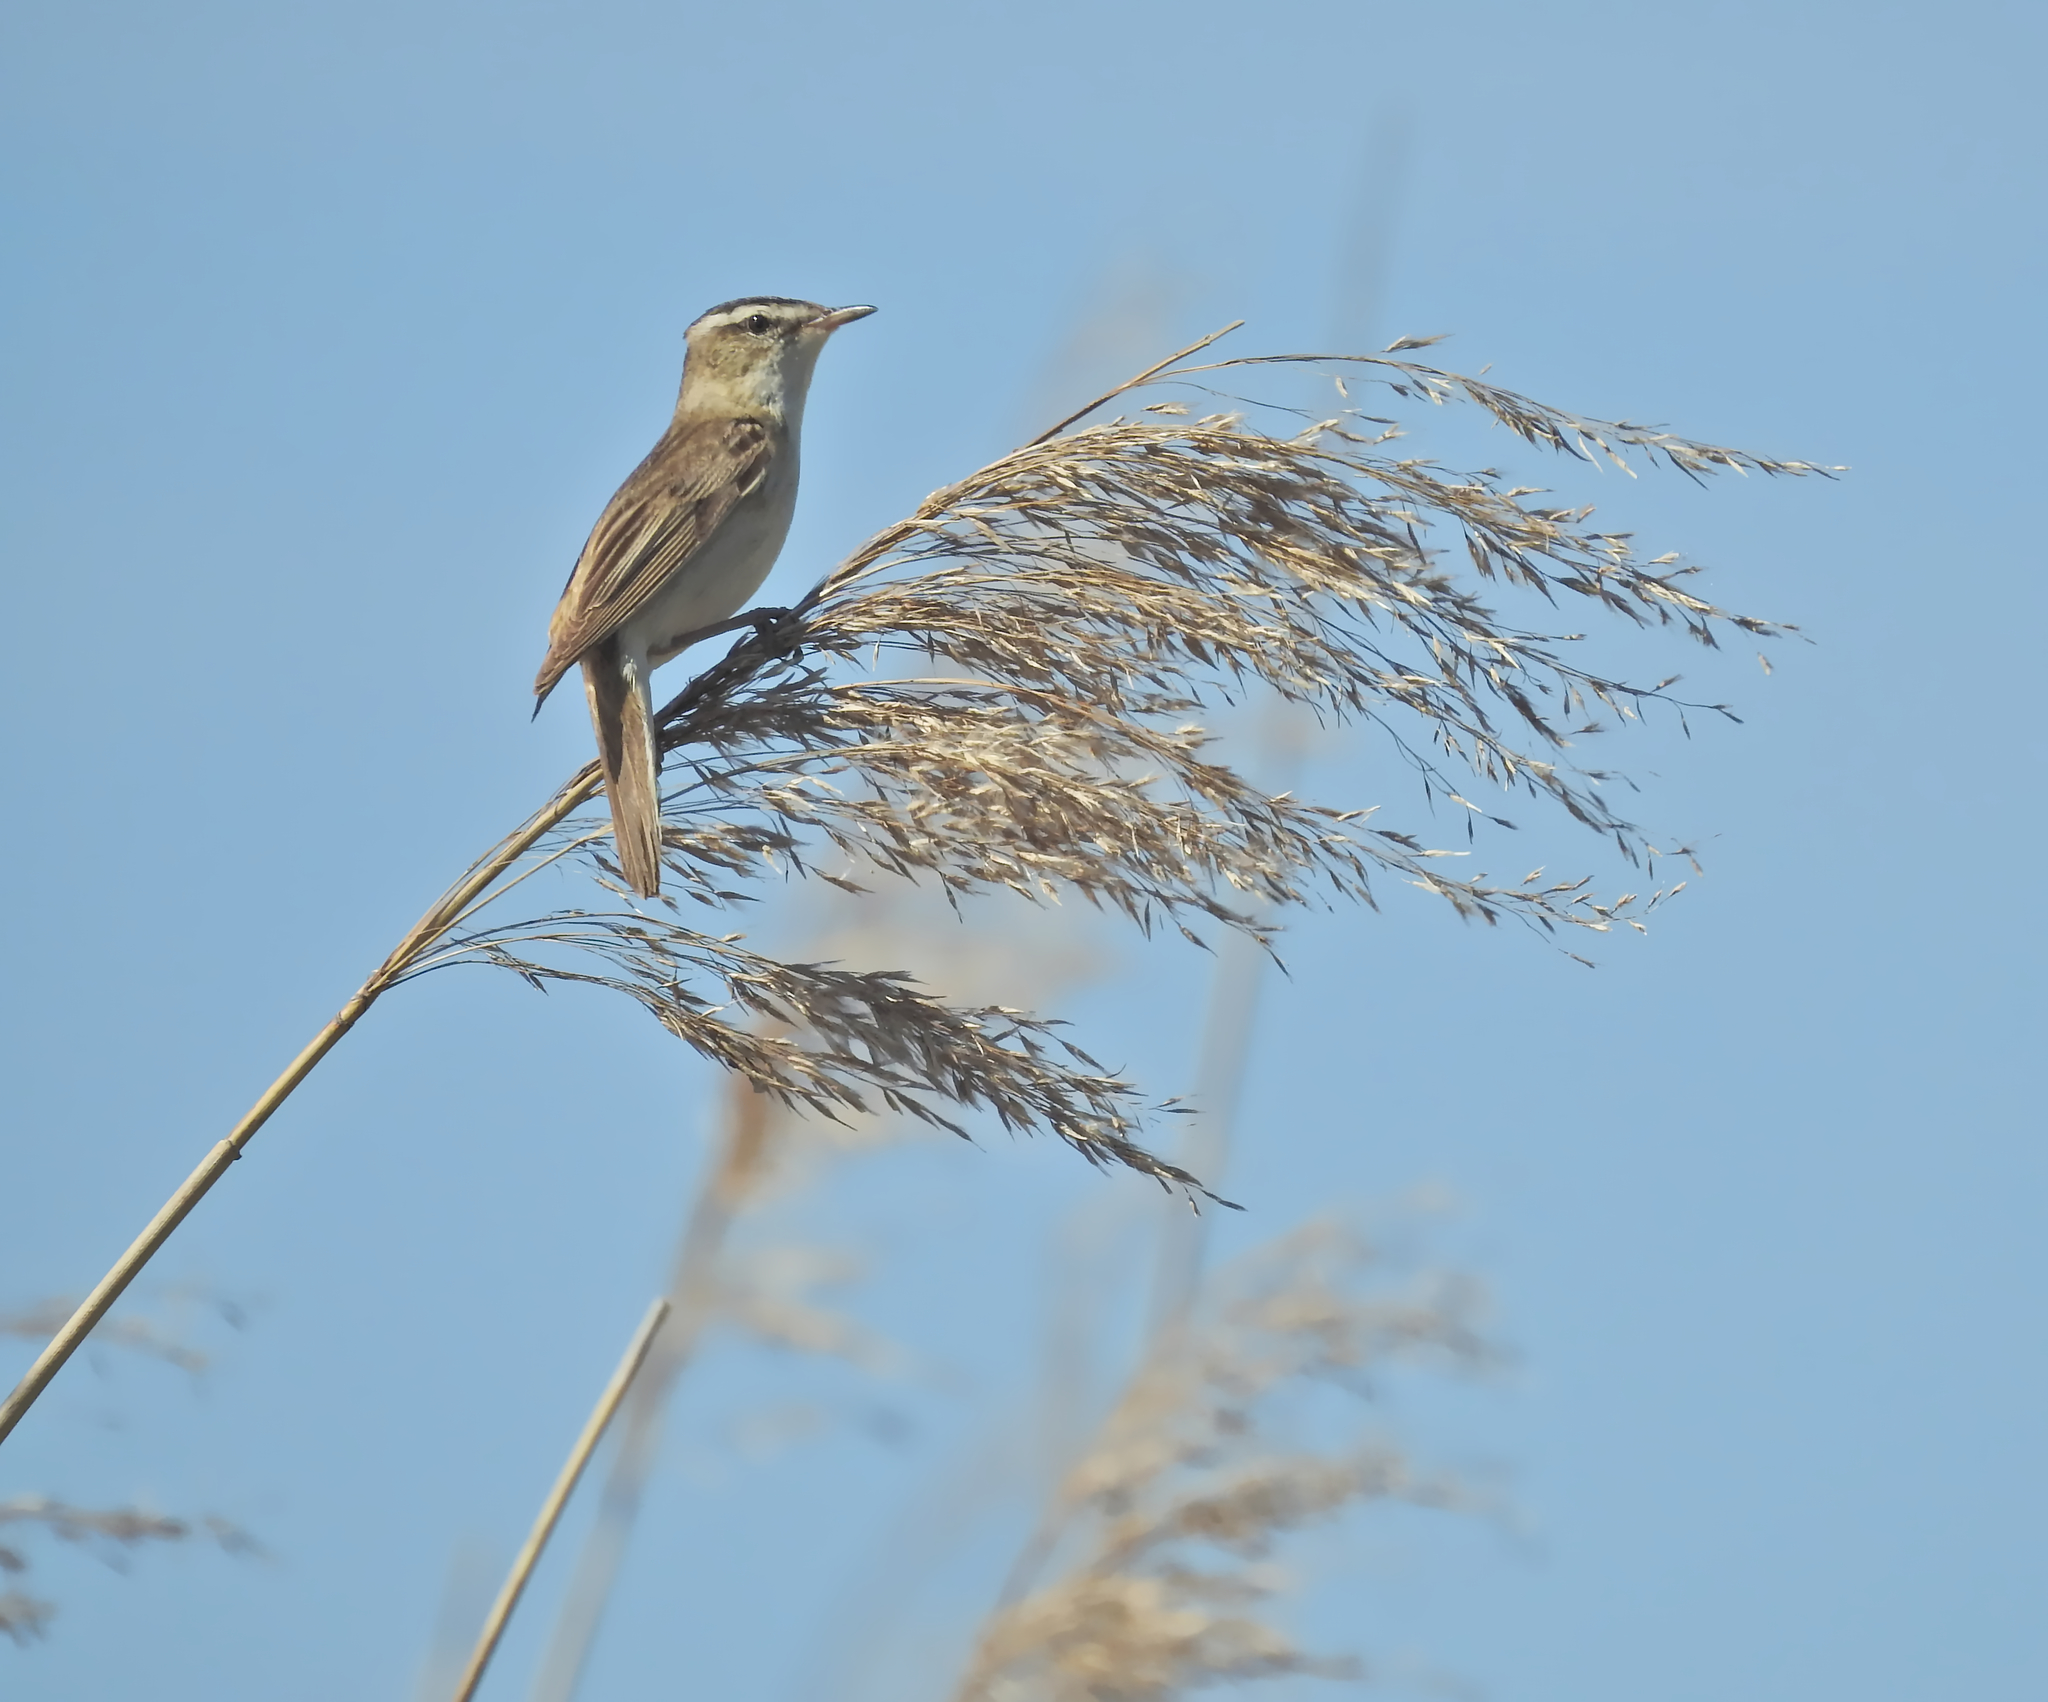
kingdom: Animalia
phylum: Chordata
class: Aves
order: Passeriformes
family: Acrocephalidae
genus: Acrocephalus
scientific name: Acrocephalus schoenobaenus
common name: Sedge warbler
